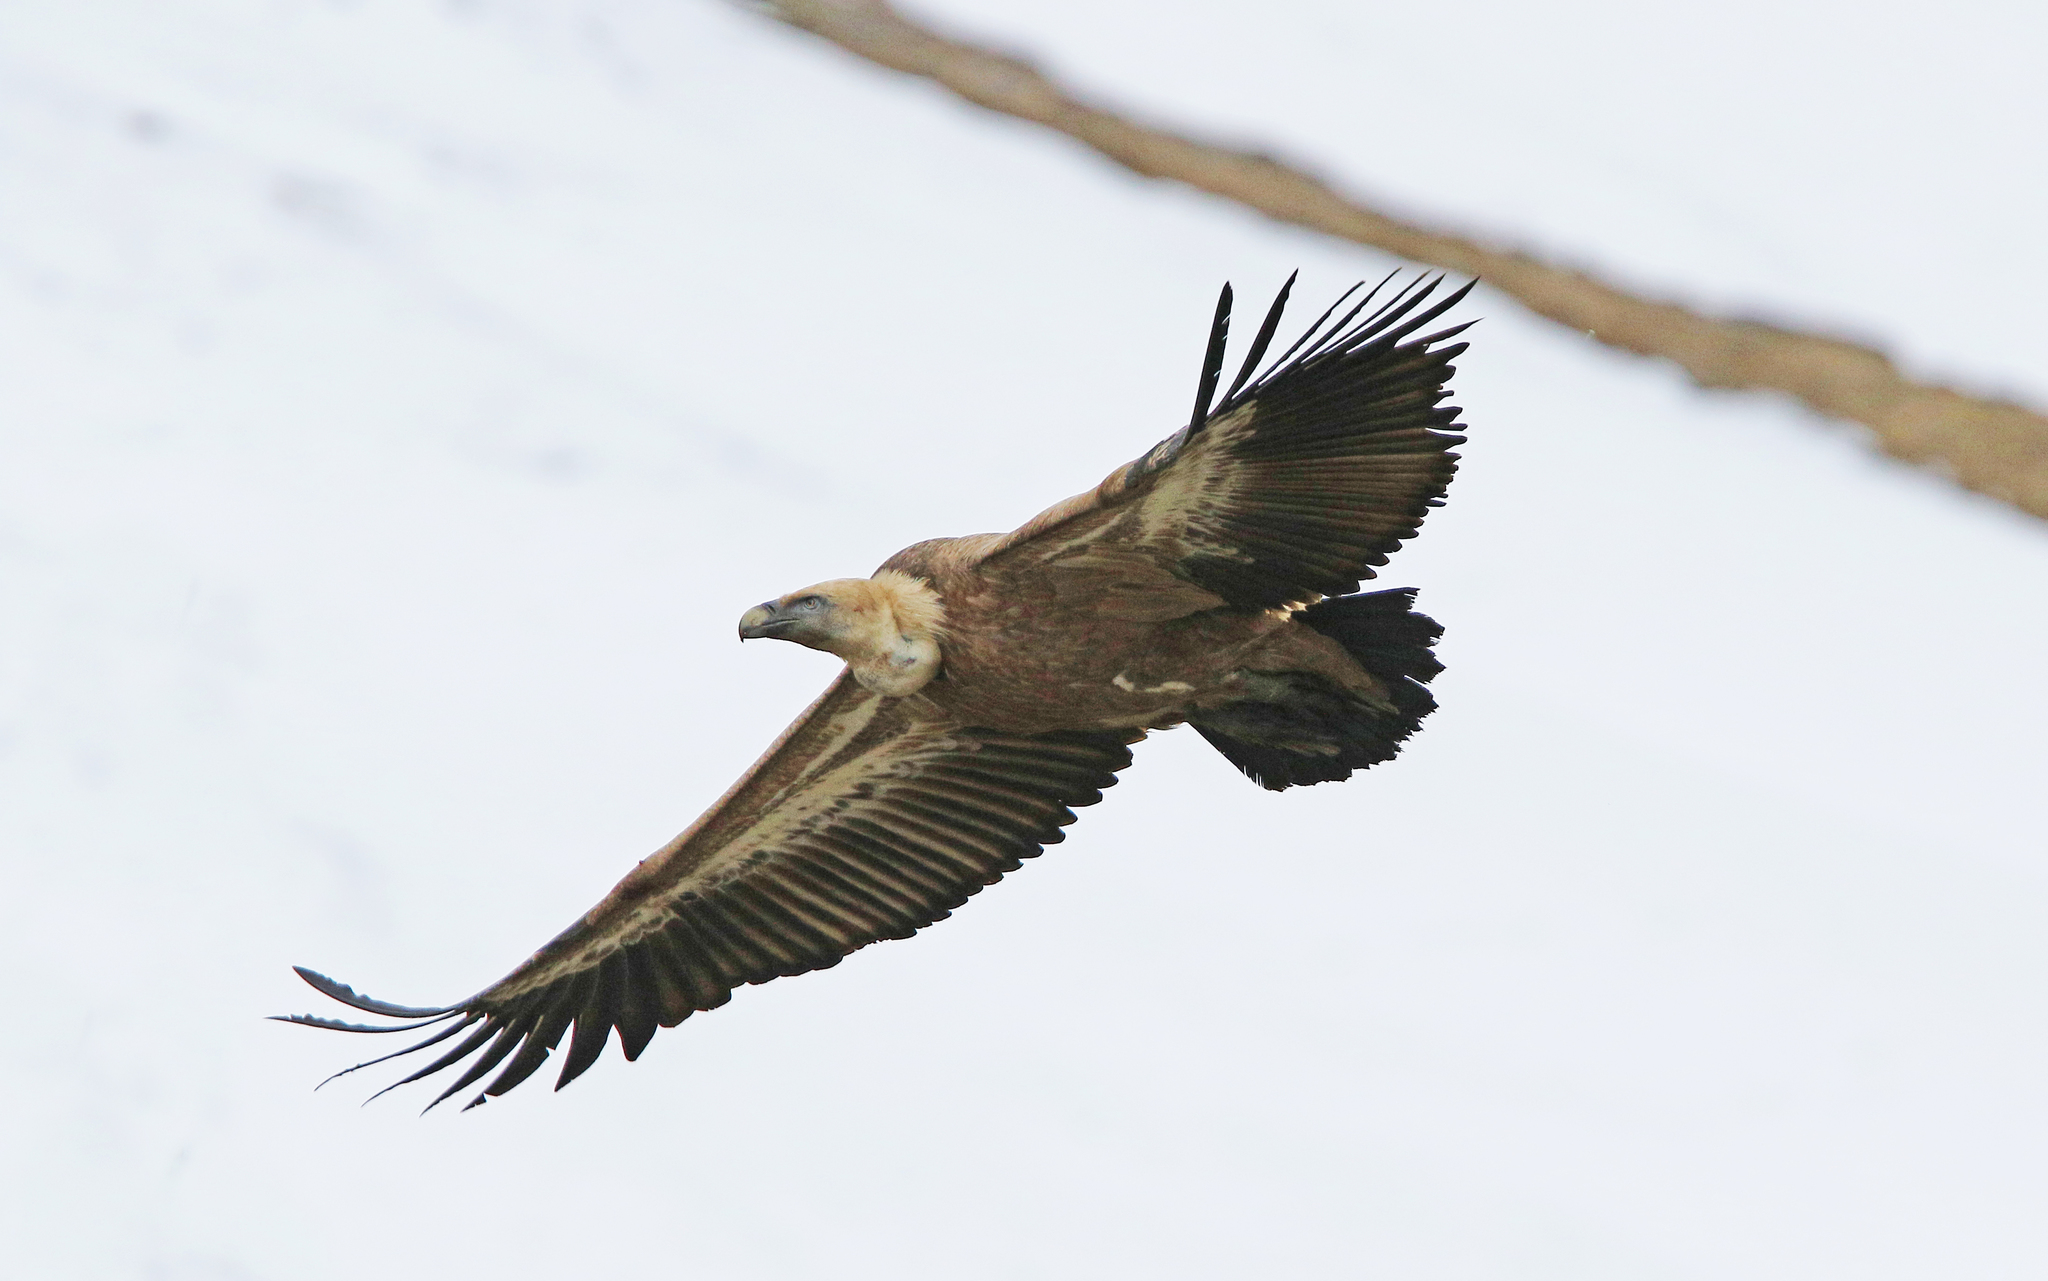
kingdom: Animalia
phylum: Chordata
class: Aves
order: Accipitriformes
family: Accipitridae
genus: Gyps
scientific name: Gyps fulvus
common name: Griffon vulture
